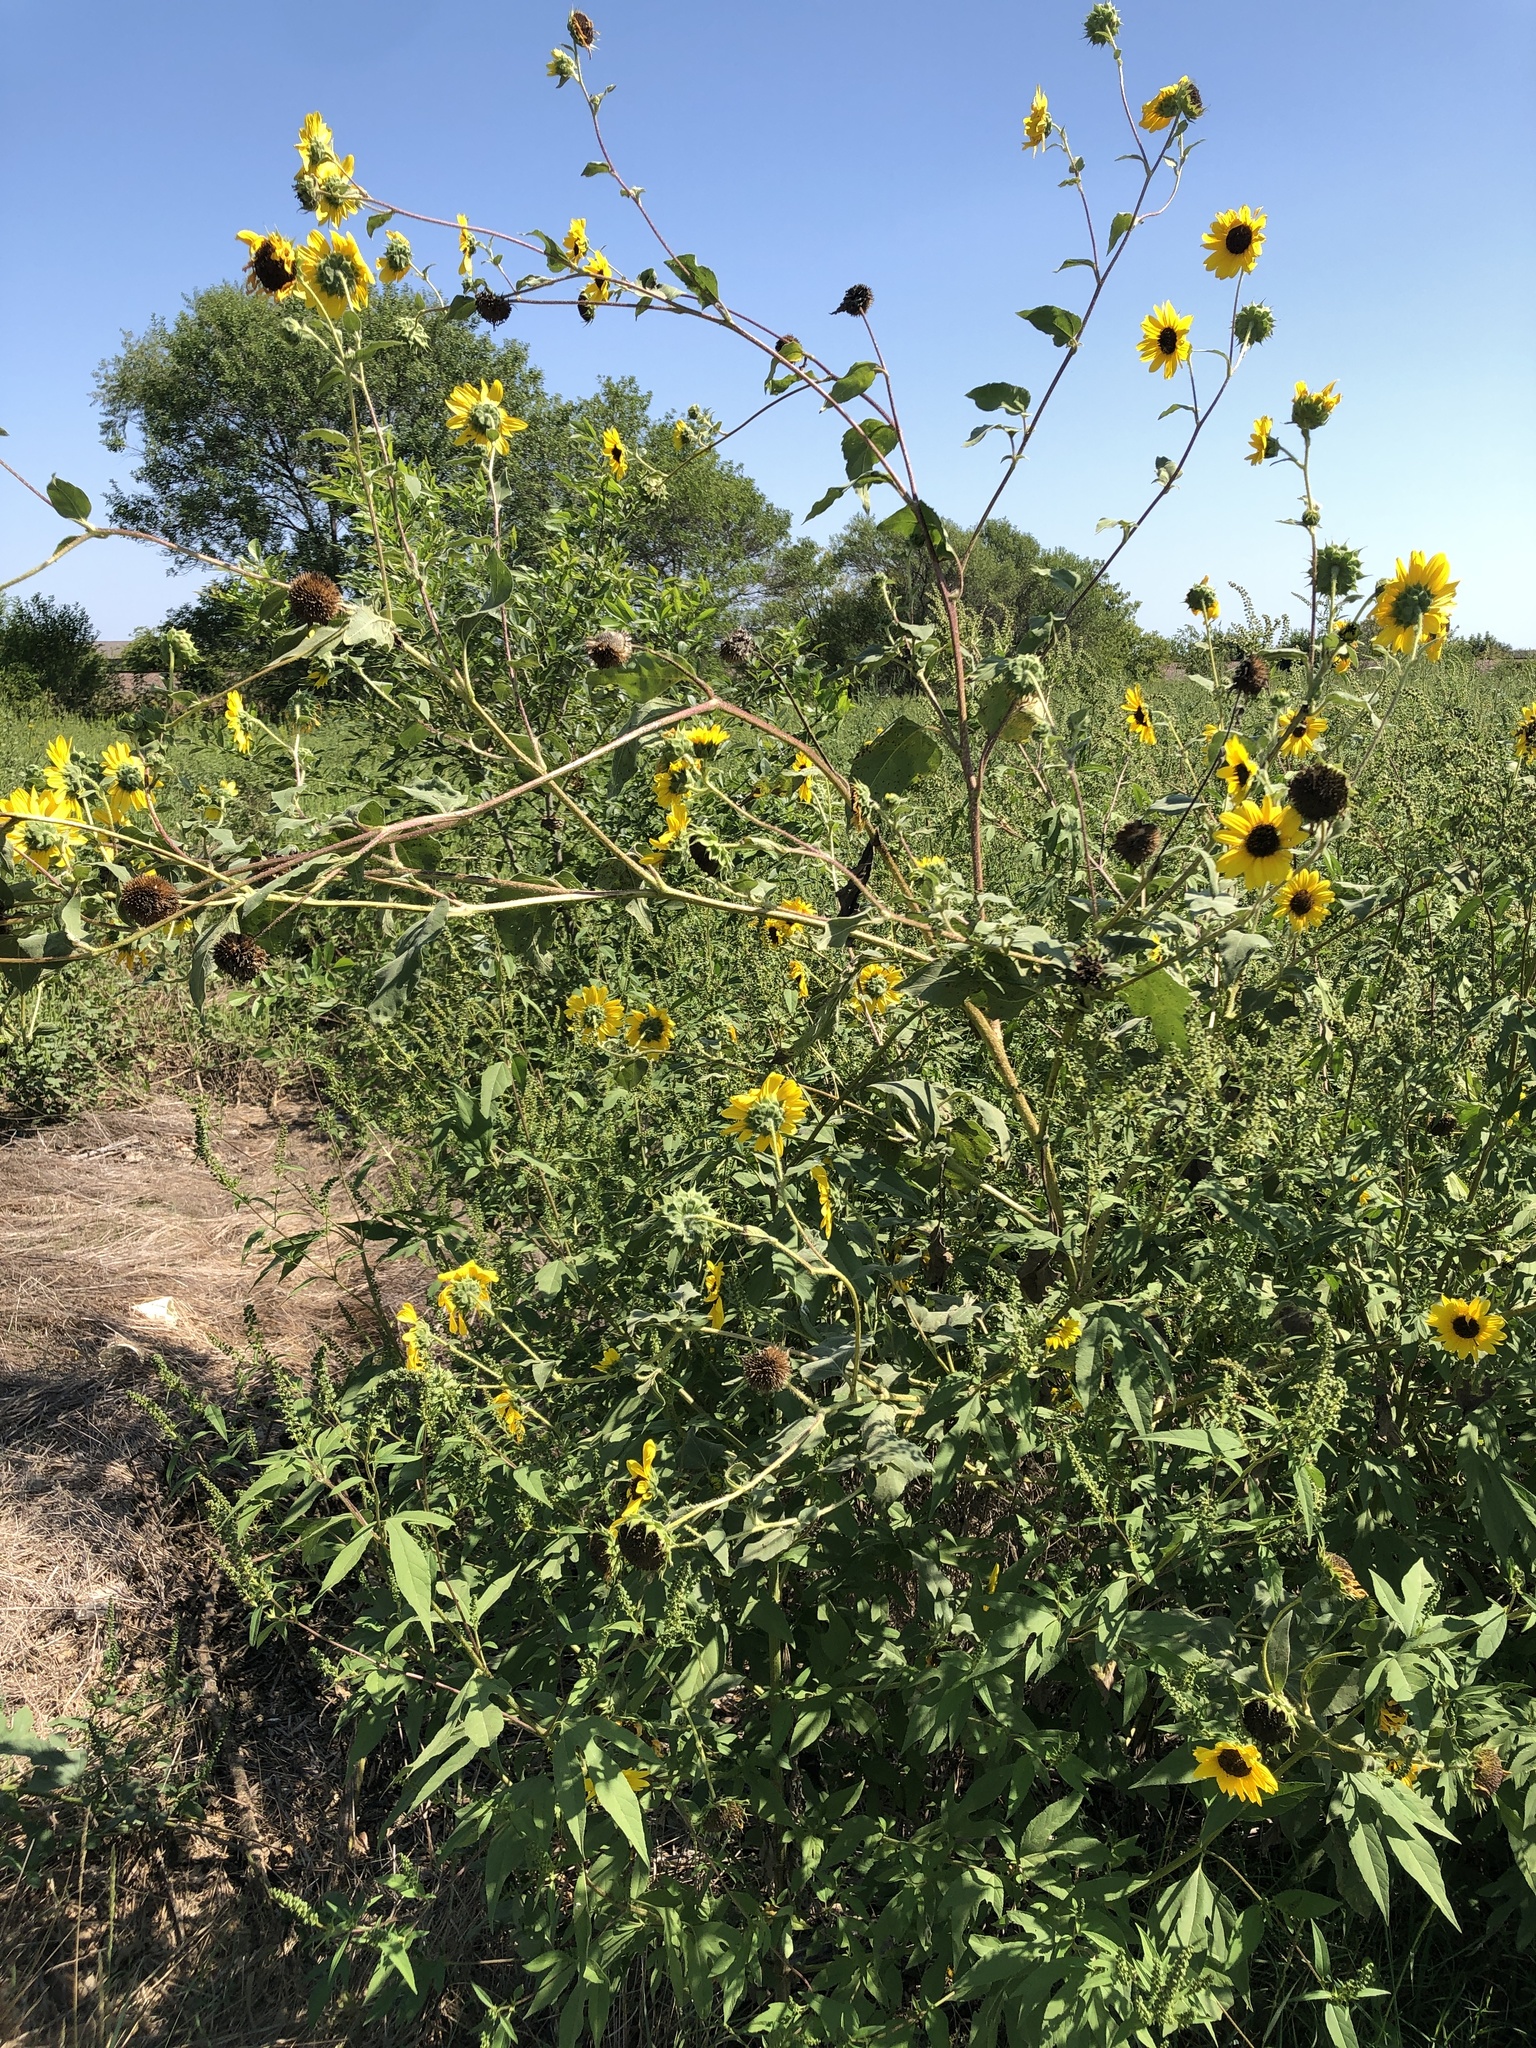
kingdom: Plantae
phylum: Tracheophyta
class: Magnoliopsida
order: Asterales
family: Asteraceae
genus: Helianthus
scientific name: Helianthus annuus
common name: Sunflower
